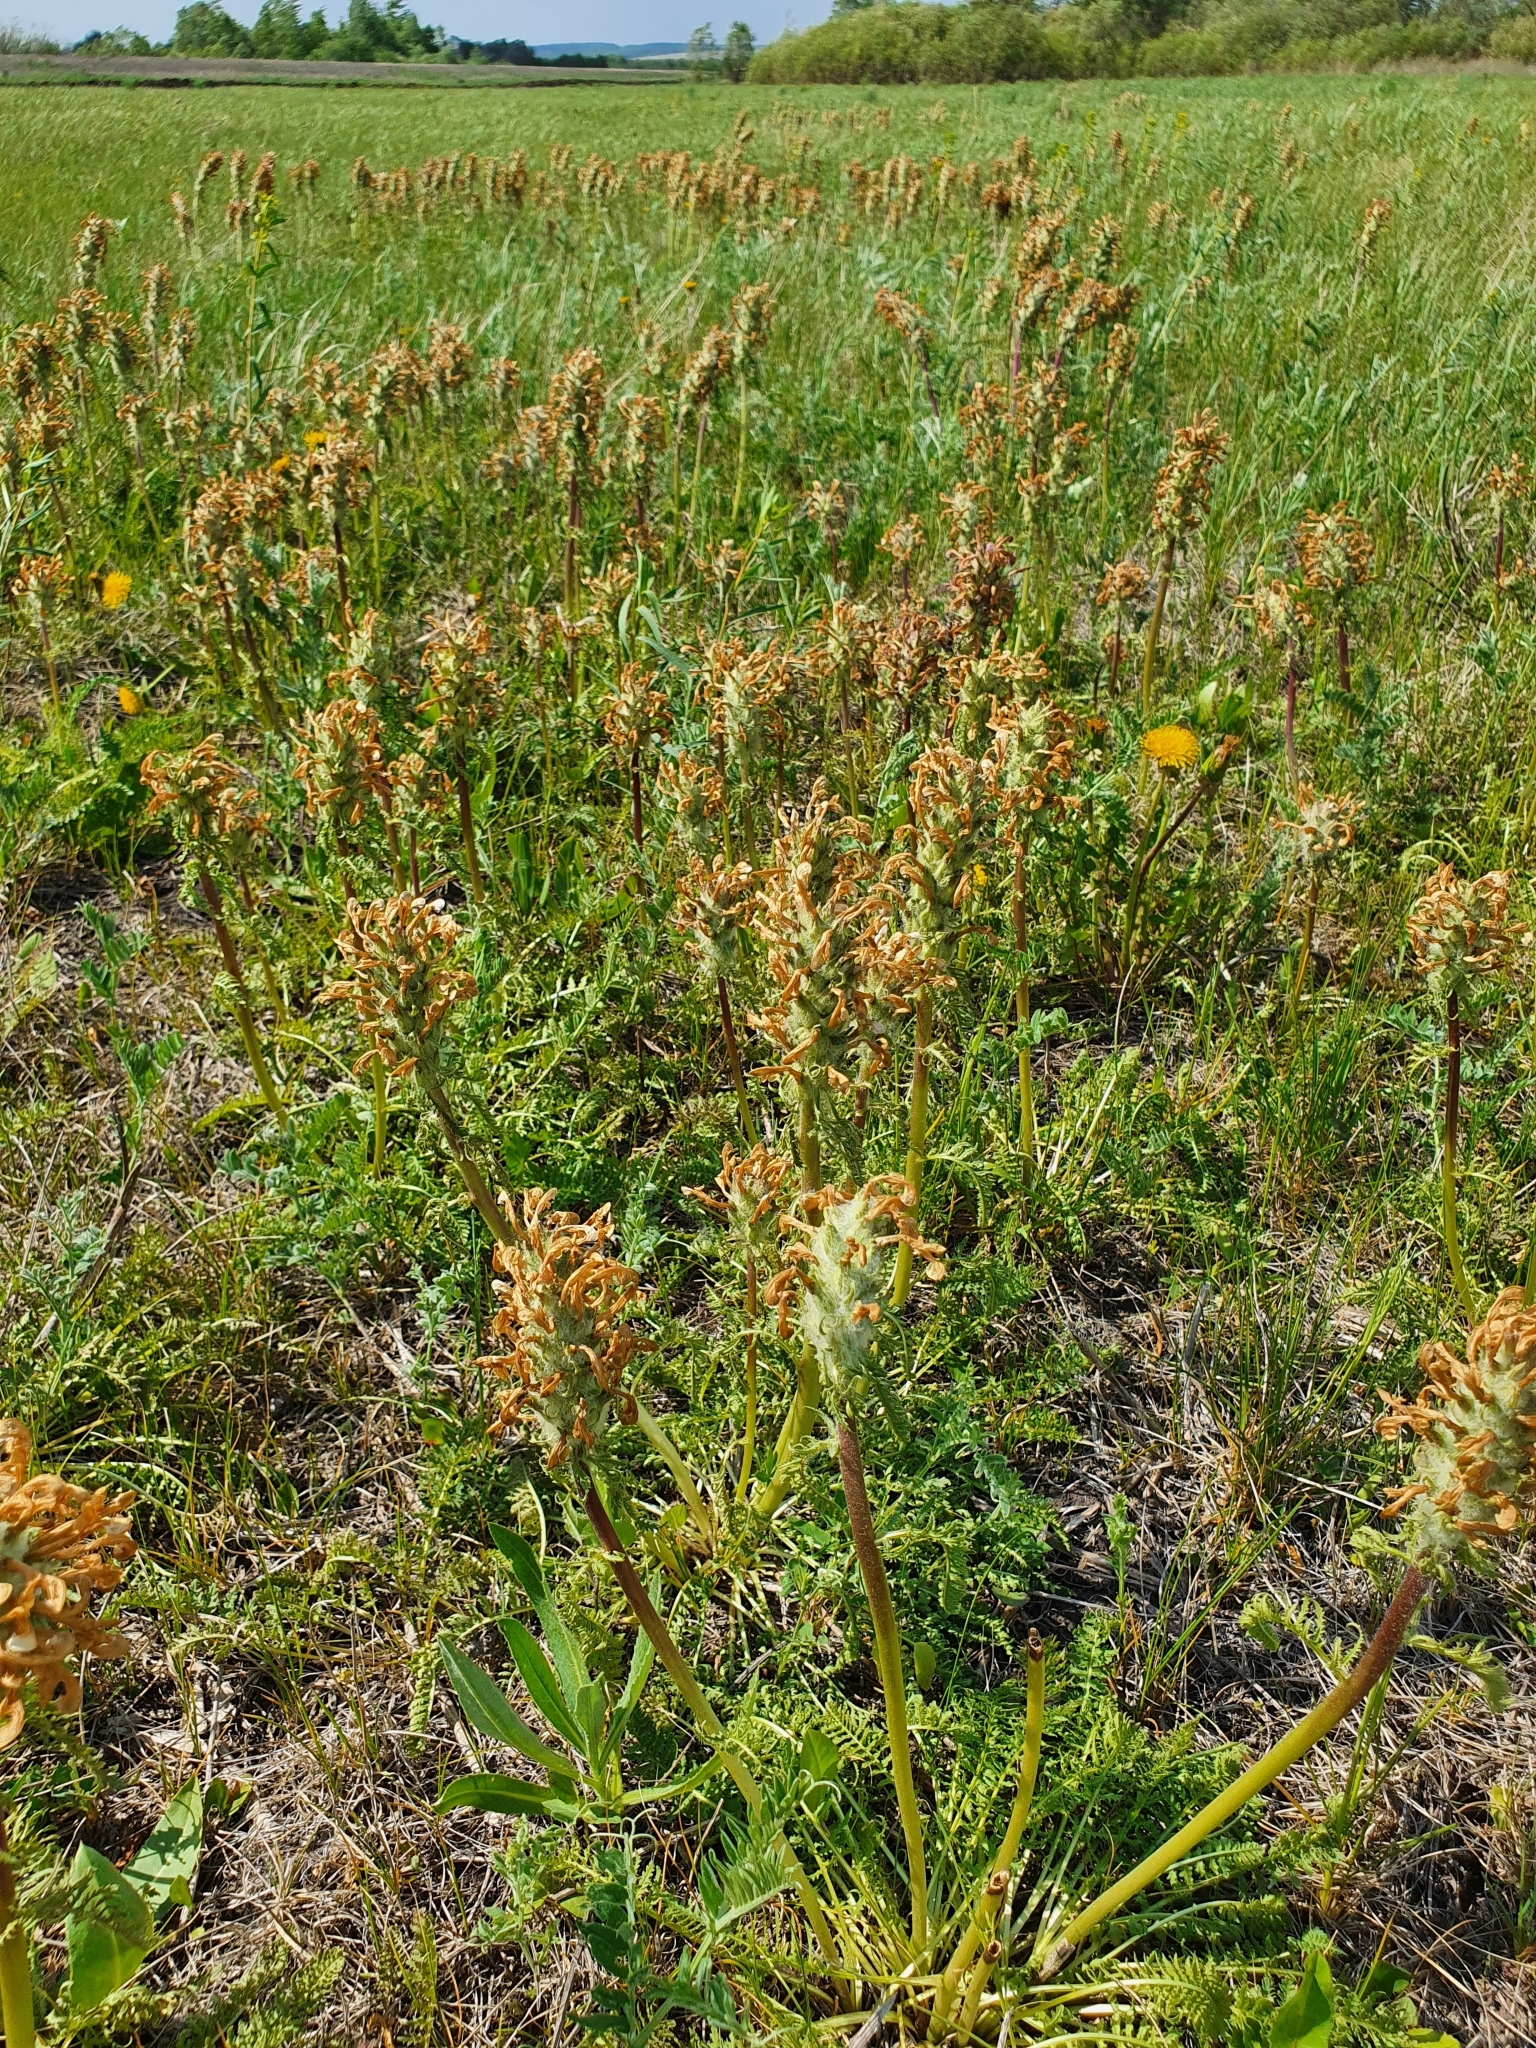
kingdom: Plantae
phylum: Tracheophyta
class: Magnoliopsida
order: Lamiales
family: Orobanchaceae
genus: Pedicularis
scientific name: Pedicularis dasystachys
